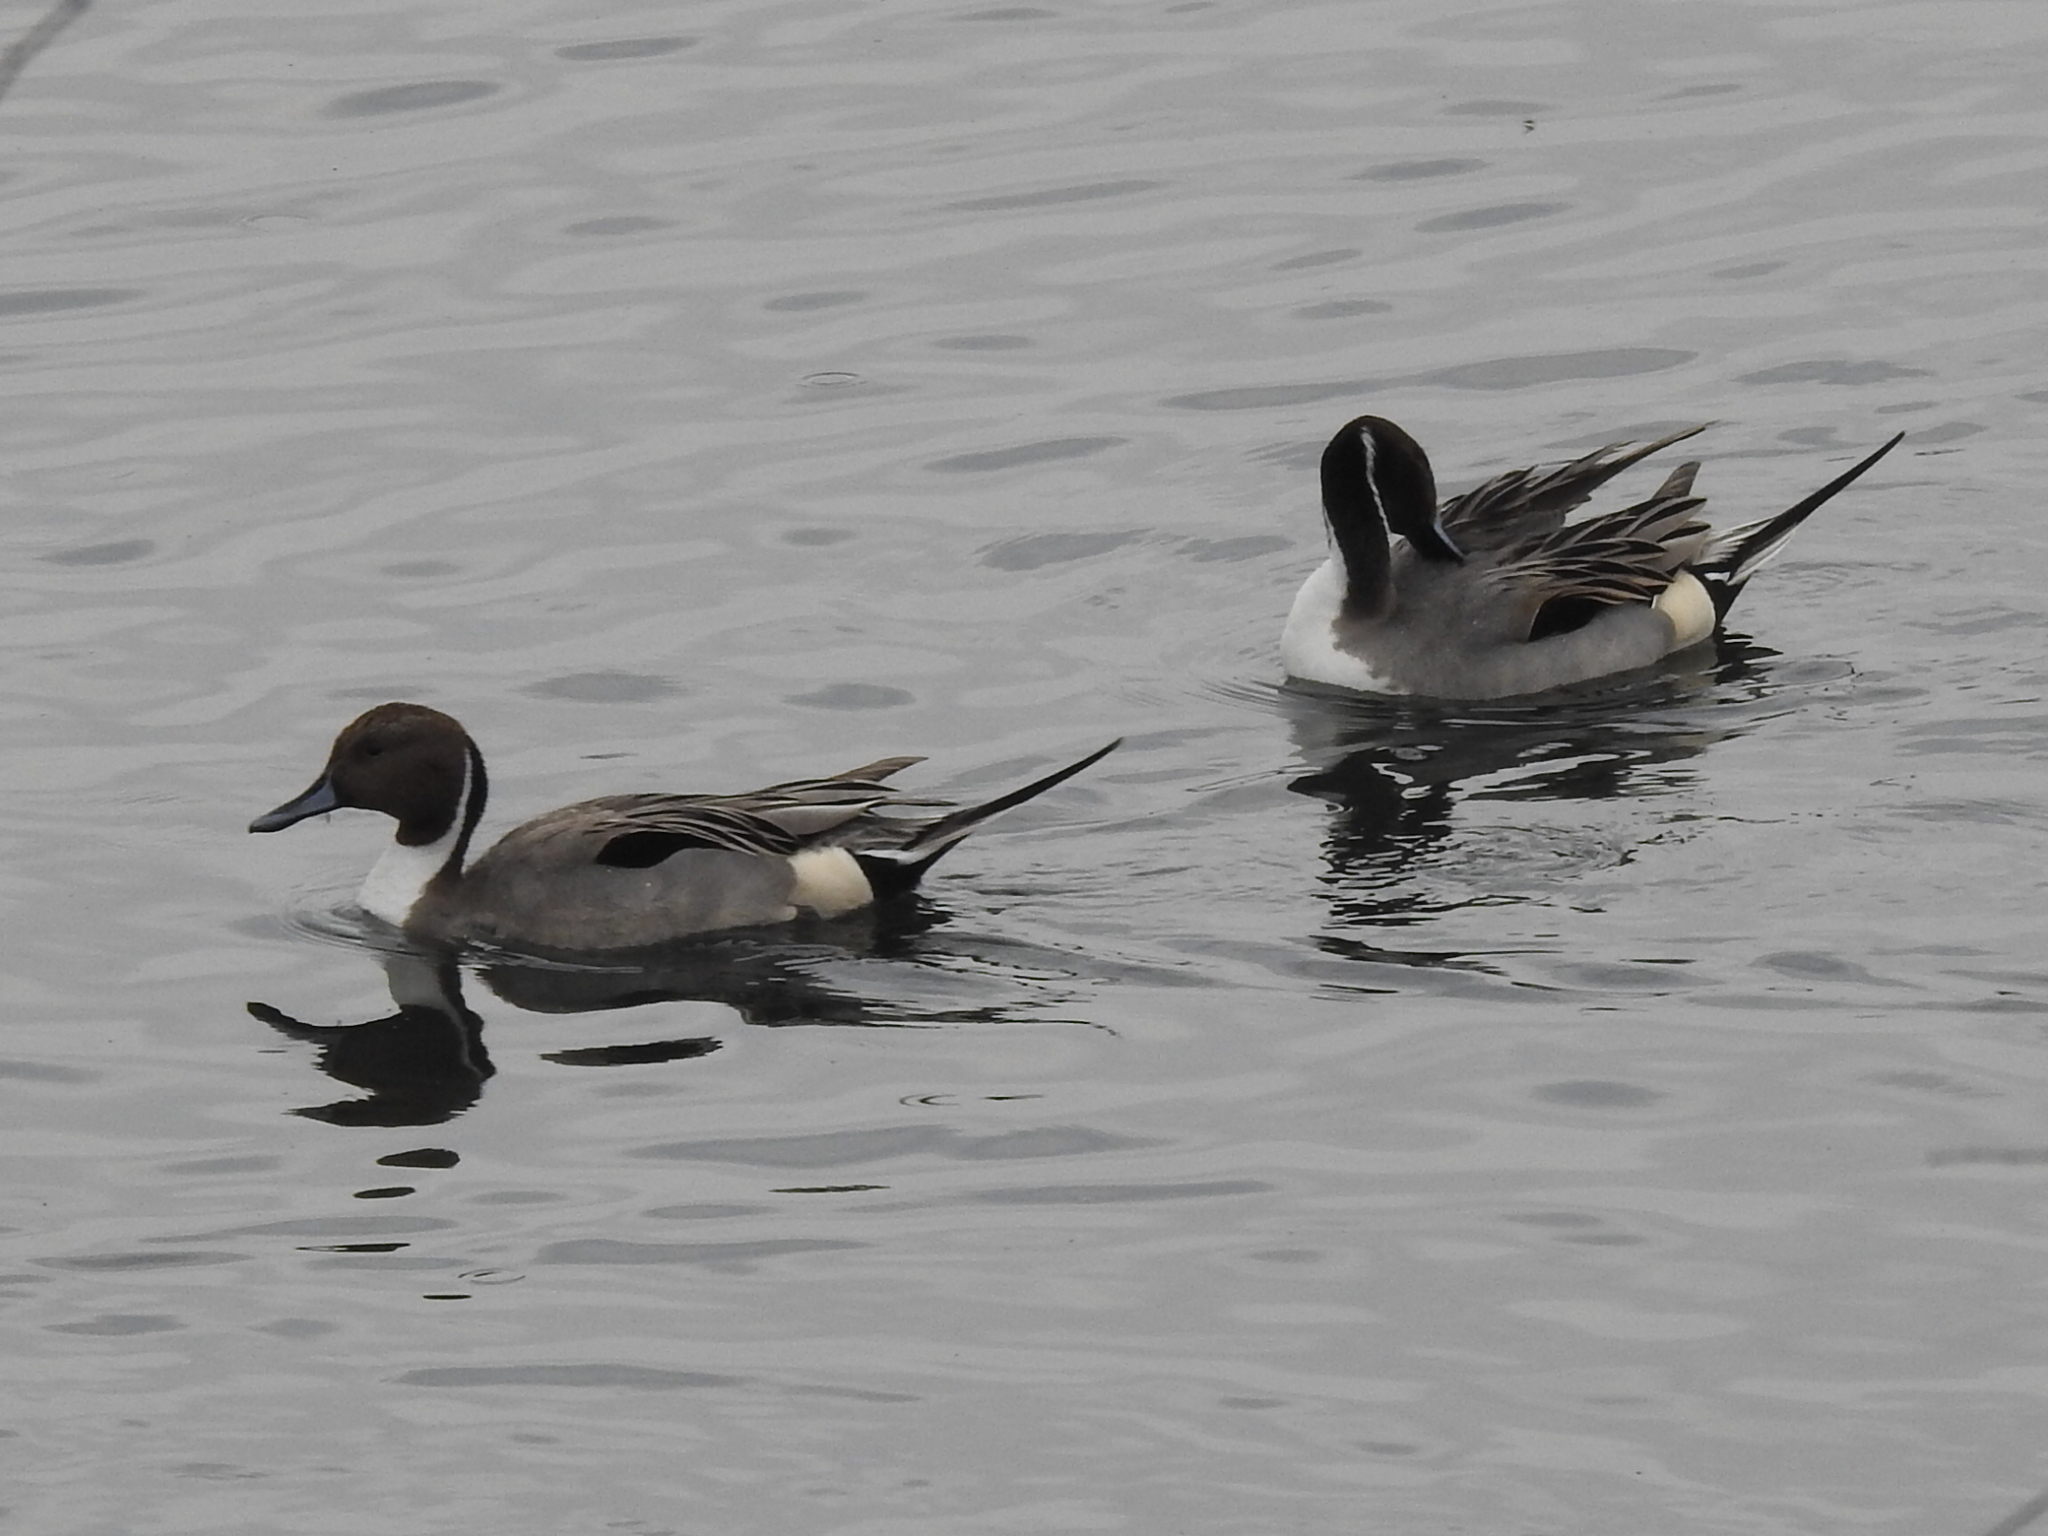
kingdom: Animalia
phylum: Chordata
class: Aves
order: Anseriformes
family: Anatidae
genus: Anas
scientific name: Anas acuta
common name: Northern pintail
